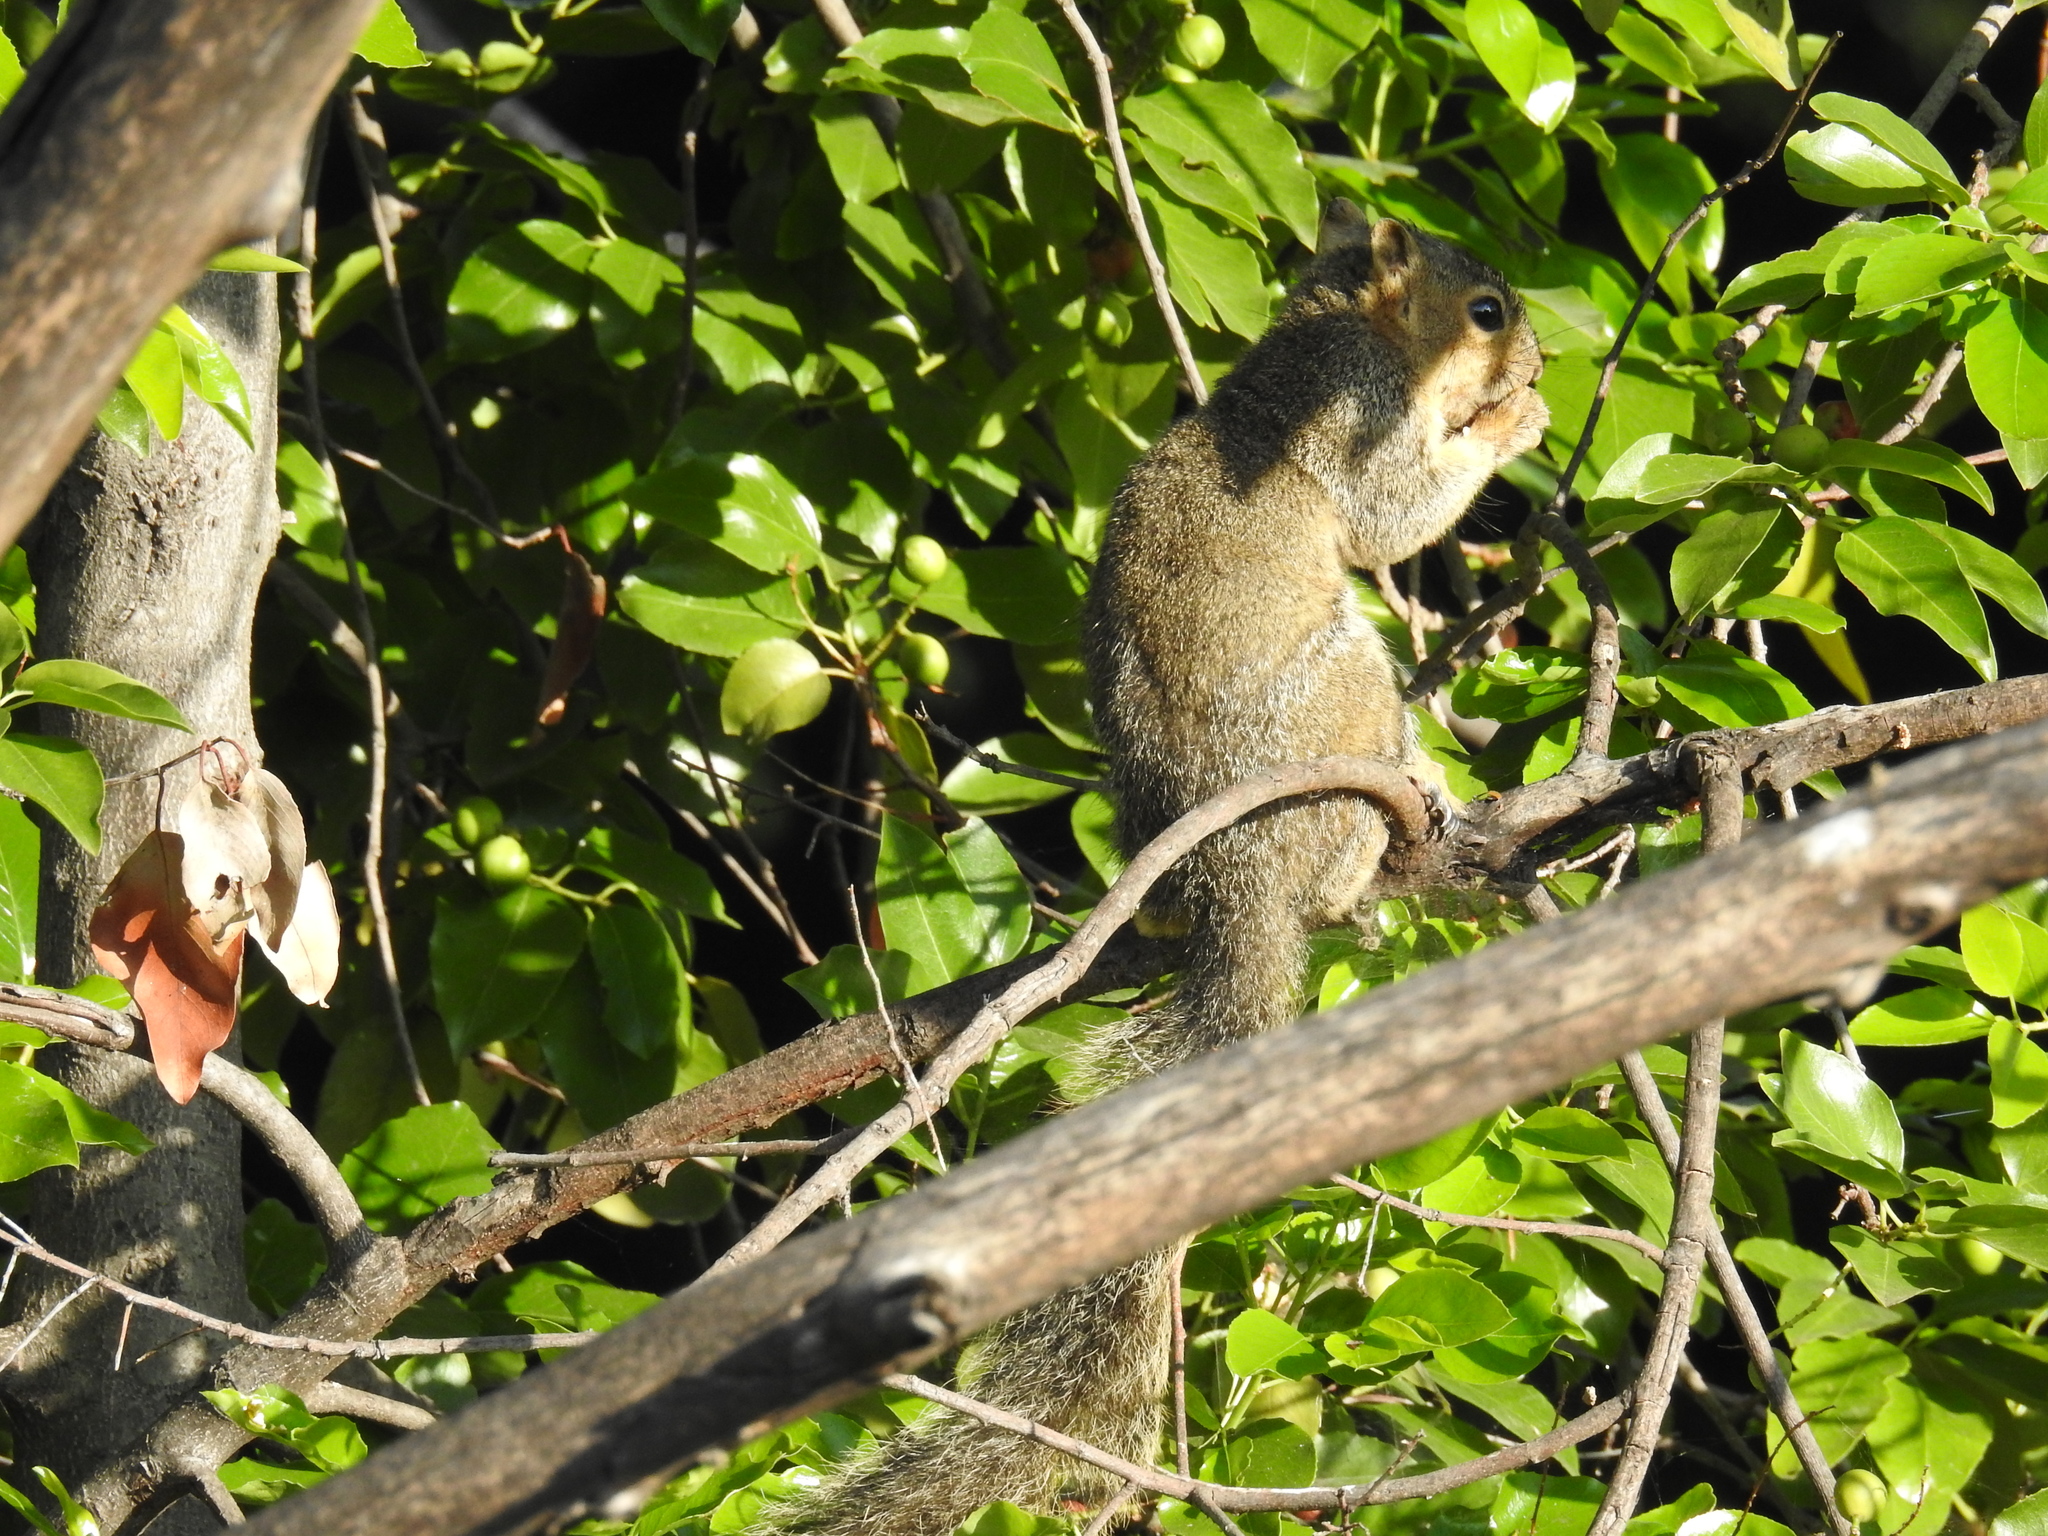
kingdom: Animalia
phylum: Chordata
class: Mammalia
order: Rodentia
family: Sciuridae
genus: Sciurus
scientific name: Sciurus niger
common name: Fox squirrel
